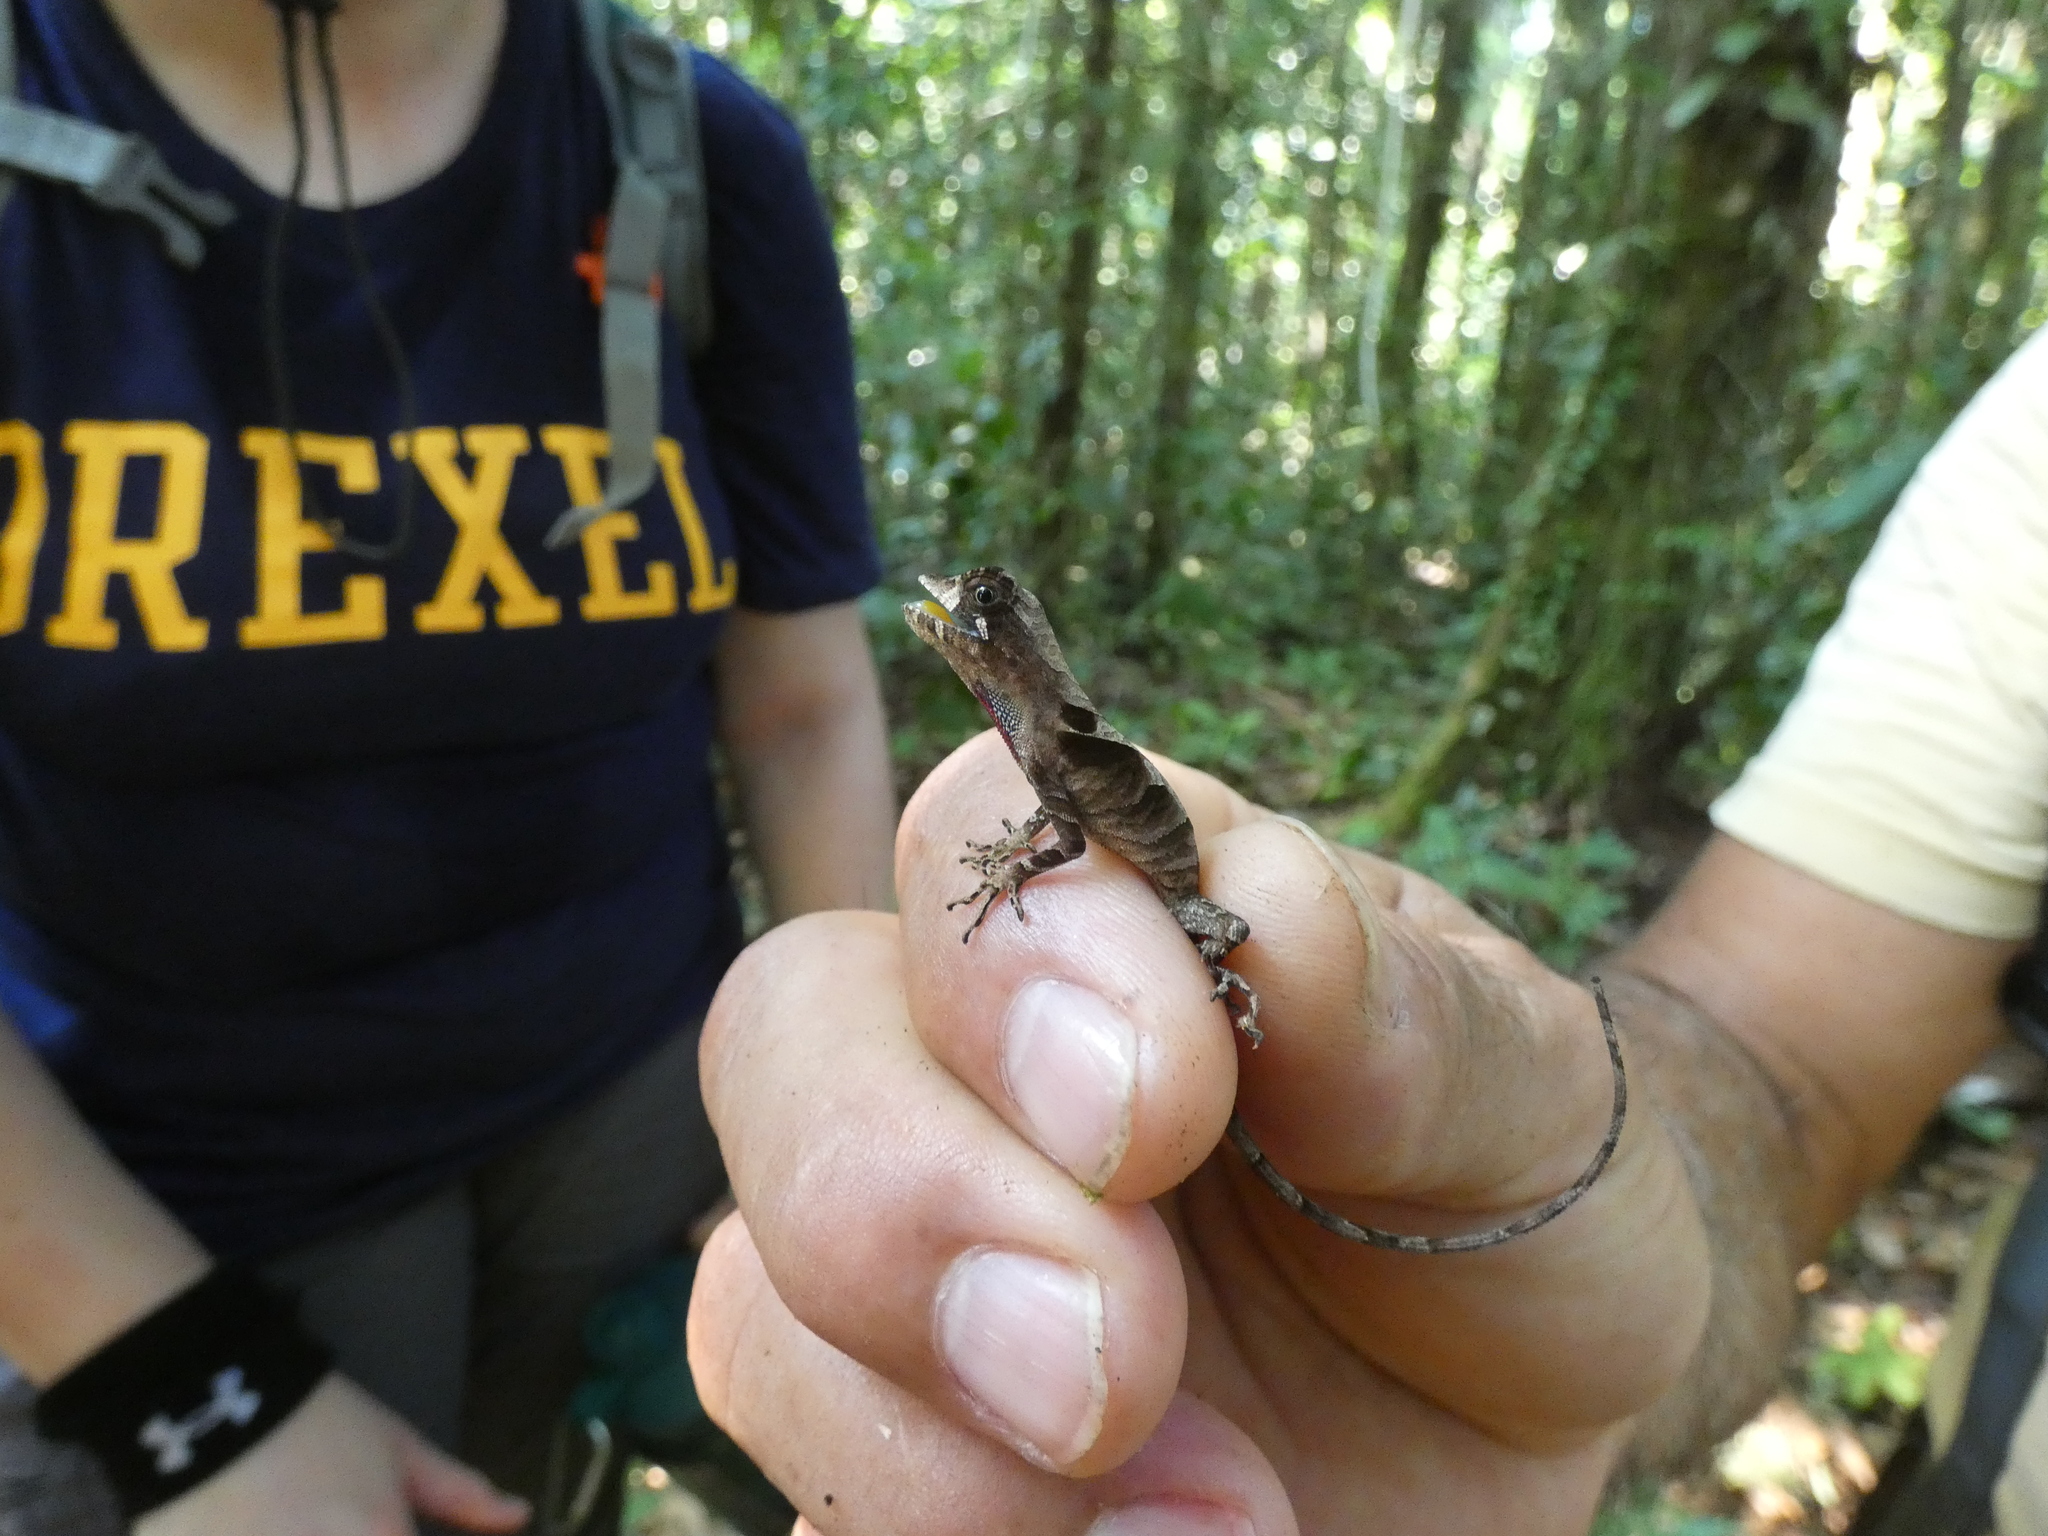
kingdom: Animalia
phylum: Chordata
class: Squamata
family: Dactyloidae
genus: Anolis
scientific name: Anolis scypheus
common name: Yellow-tongued anole
